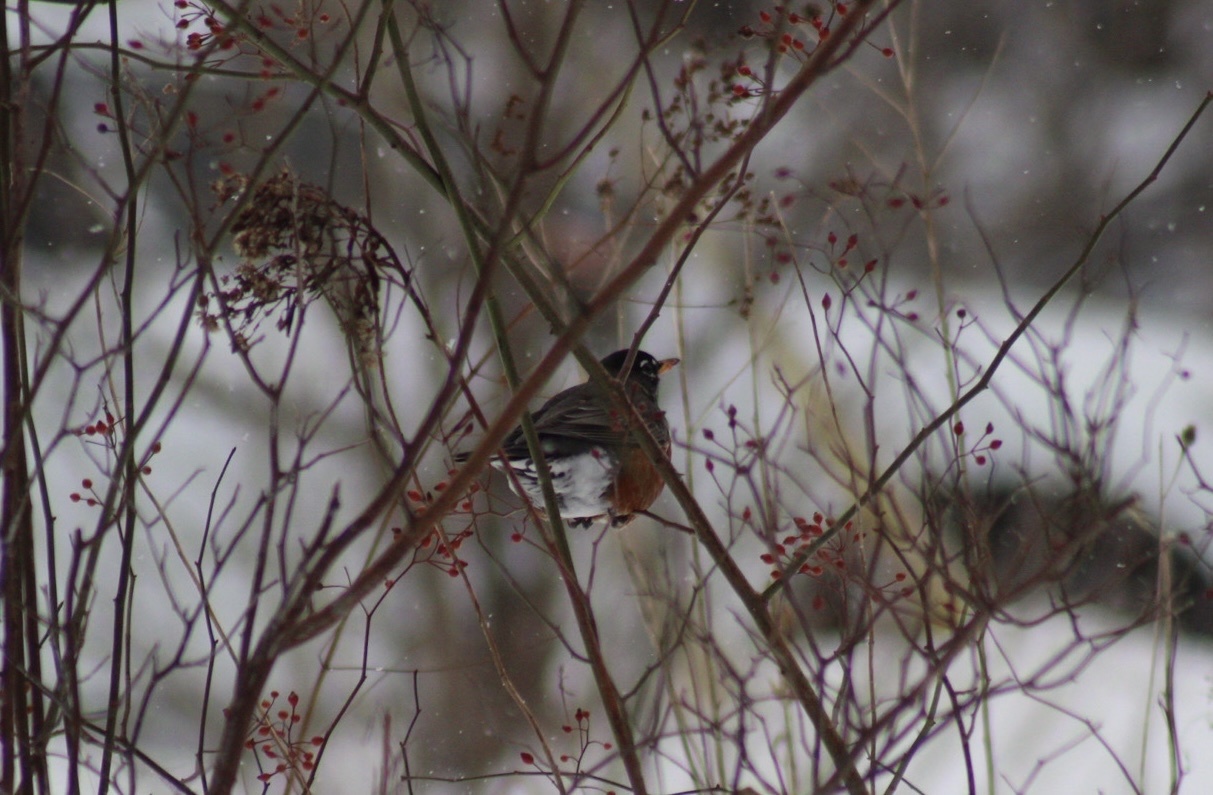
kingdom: Animalia
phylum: Chordata
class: Aves
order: Passeriformes
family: Turdidae
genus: Turdus
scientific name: Turdus migratorius
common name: American robin
